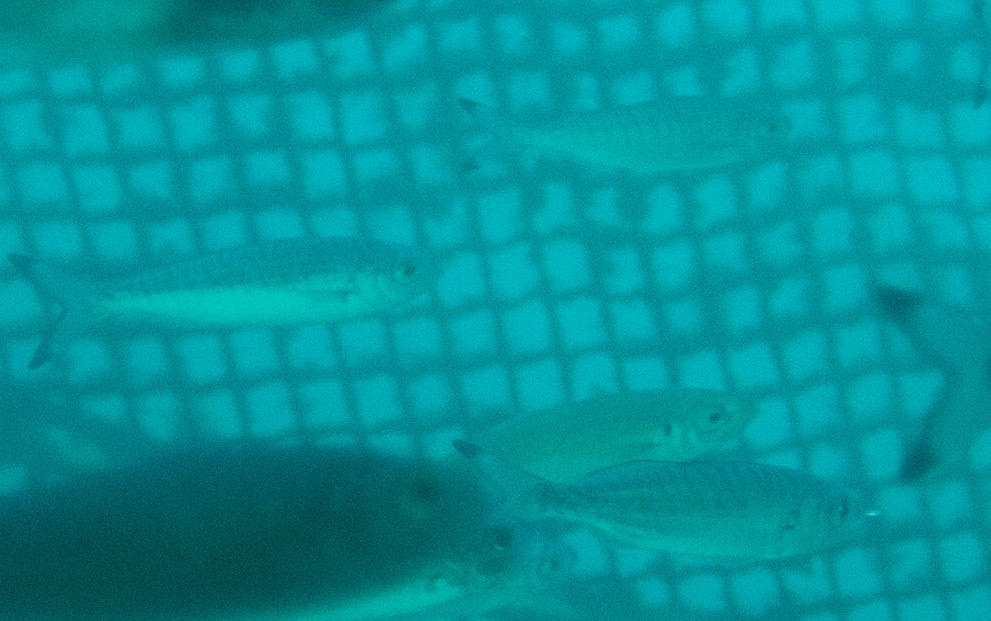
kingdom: Animalia
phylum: Chordata
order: Perciformes
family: Arripidae
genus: Arripis
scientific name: Arripis georgianus
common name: Australian herring
